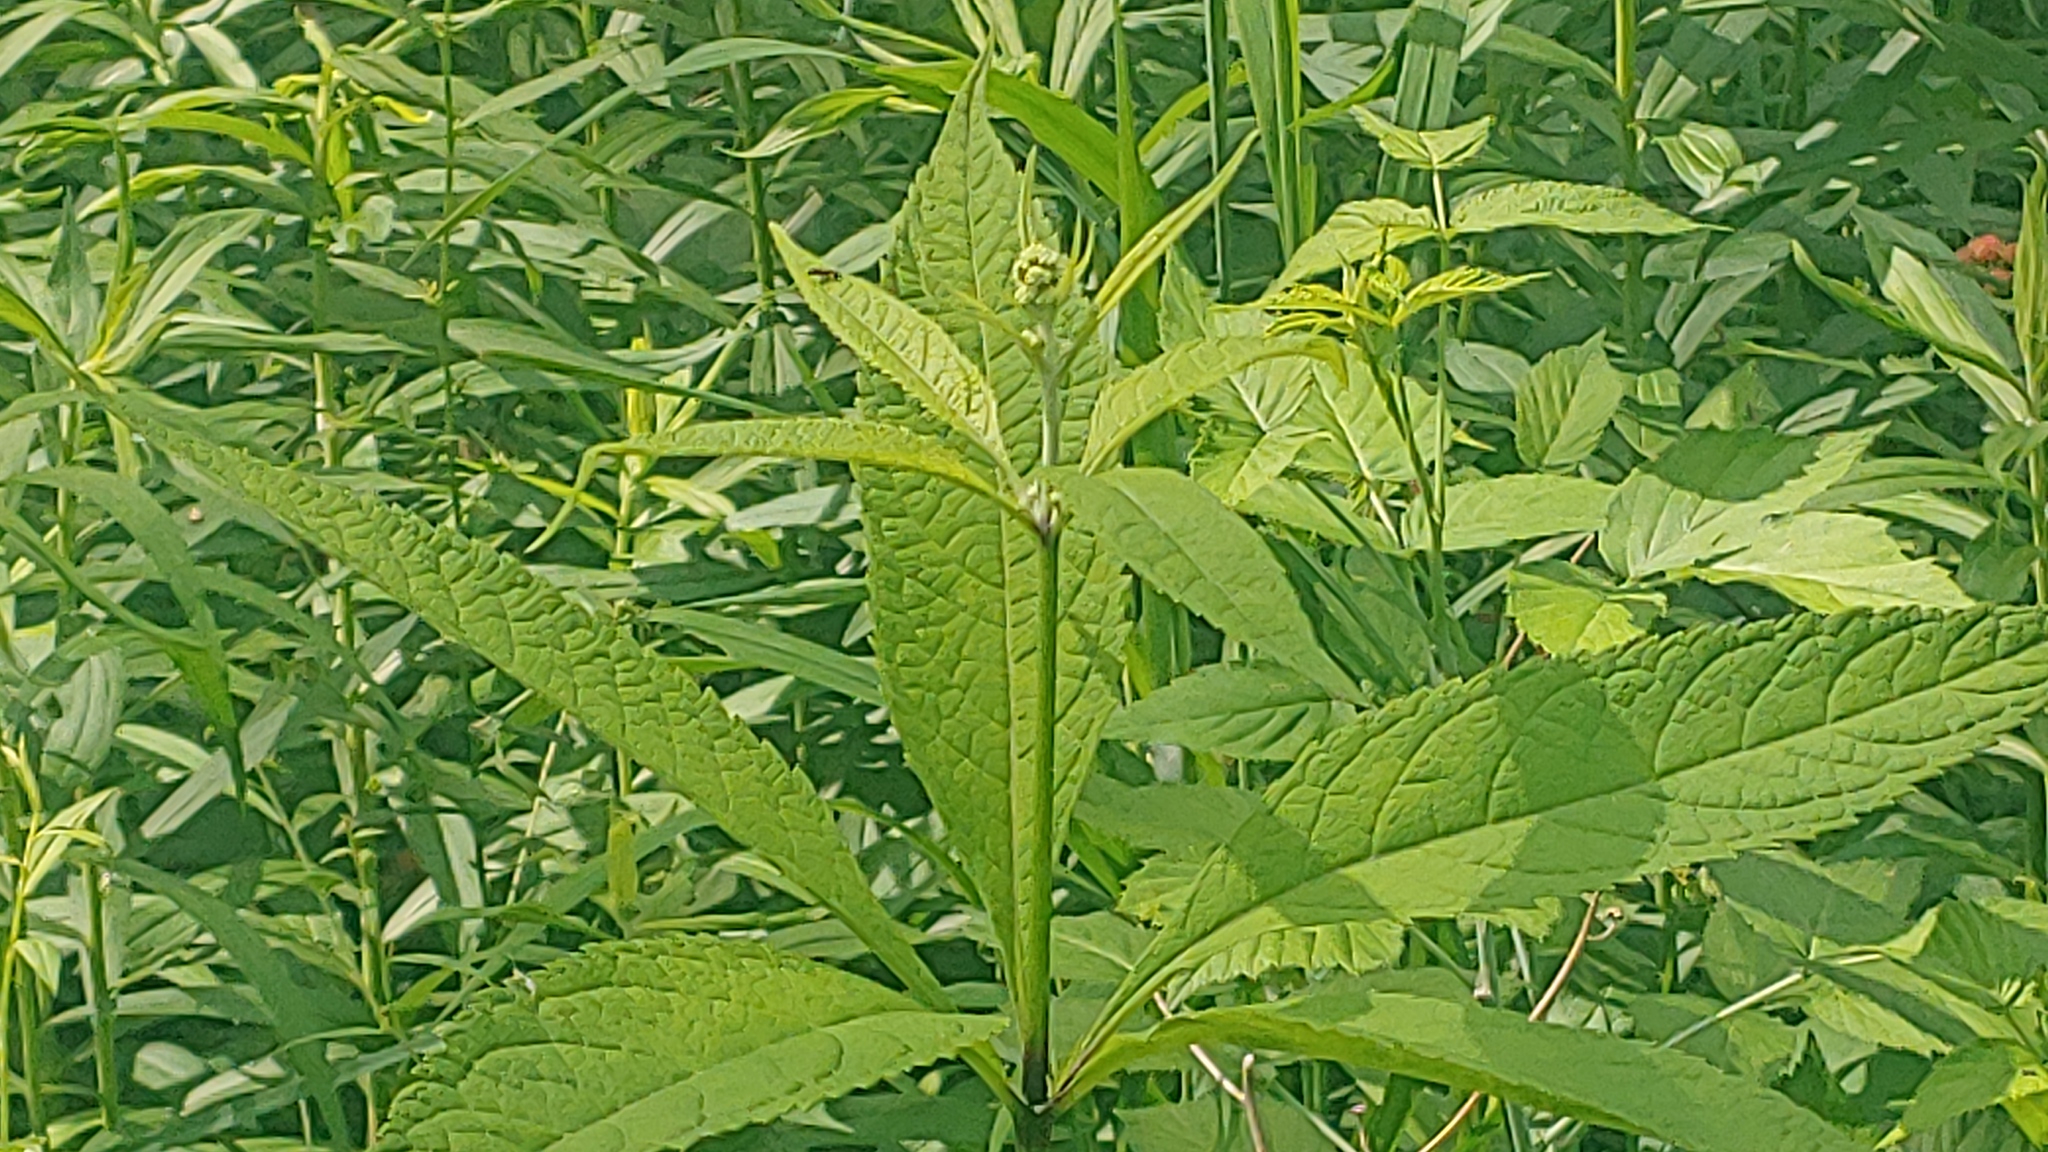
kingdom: Plantae
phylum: Tracheophyta
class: Magnoliopsida
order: Asterales
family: Asteraceae
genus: Eutrochium
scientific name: Eutrochium purpureum
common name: Gravelroot
